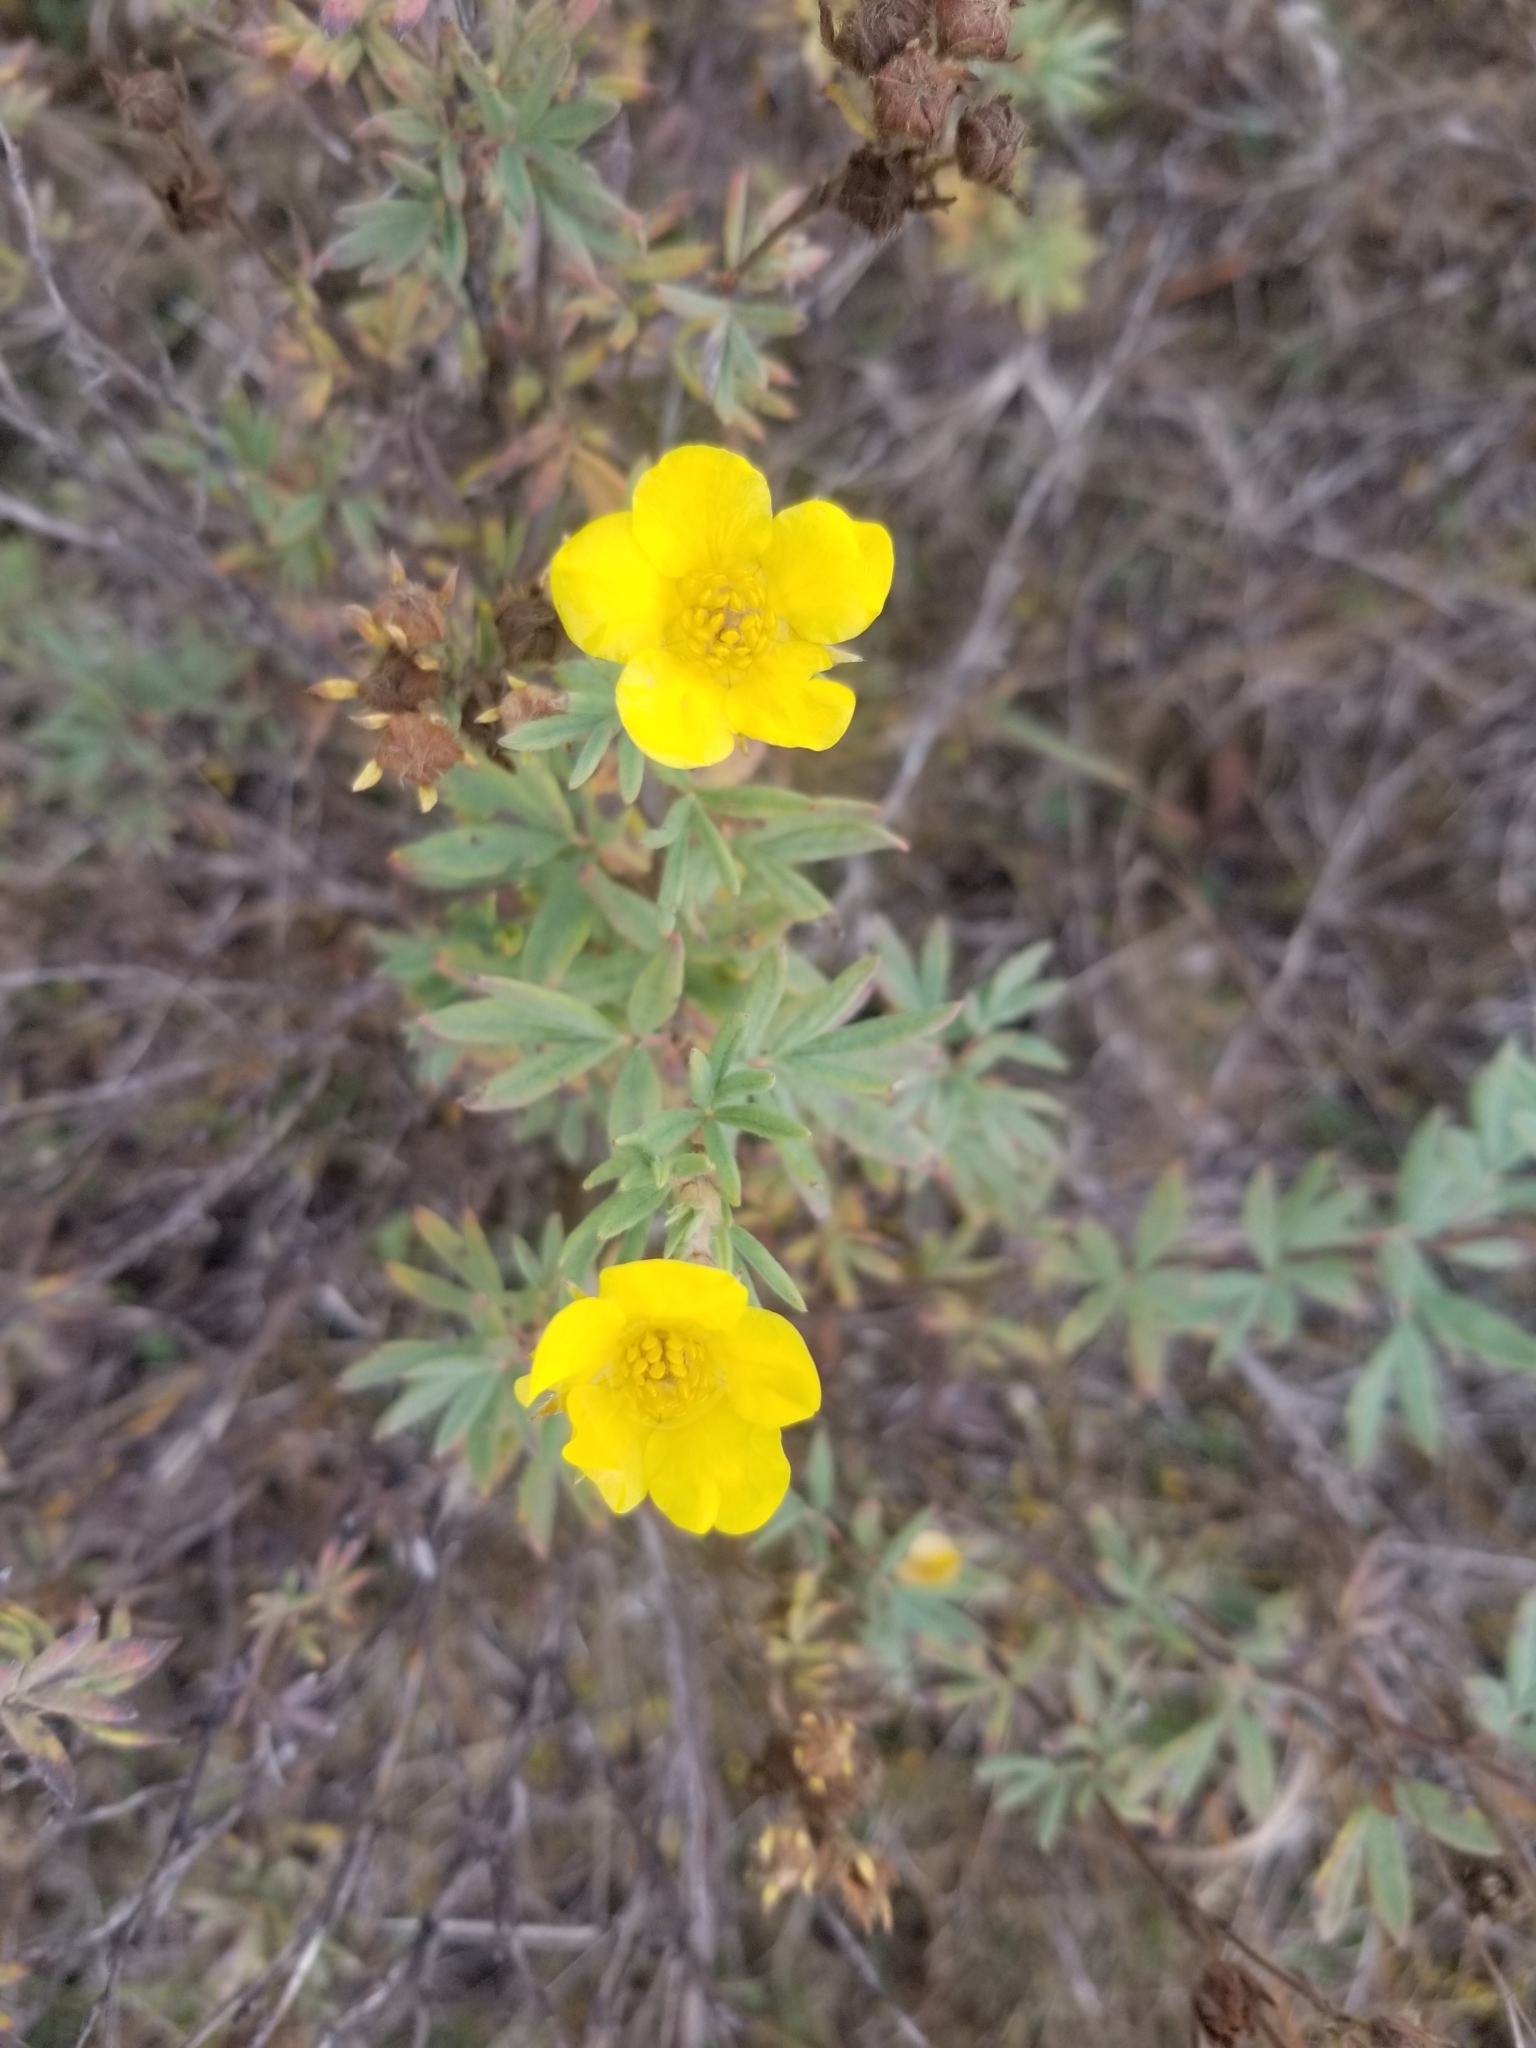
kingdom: Plantae
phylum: Tracheophyta
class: Magnoliopsida
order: Rosales
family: Rosaceae
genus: Dasiphora
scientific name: Dasiphora fruticosa
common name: Shrubby cinquefoil
